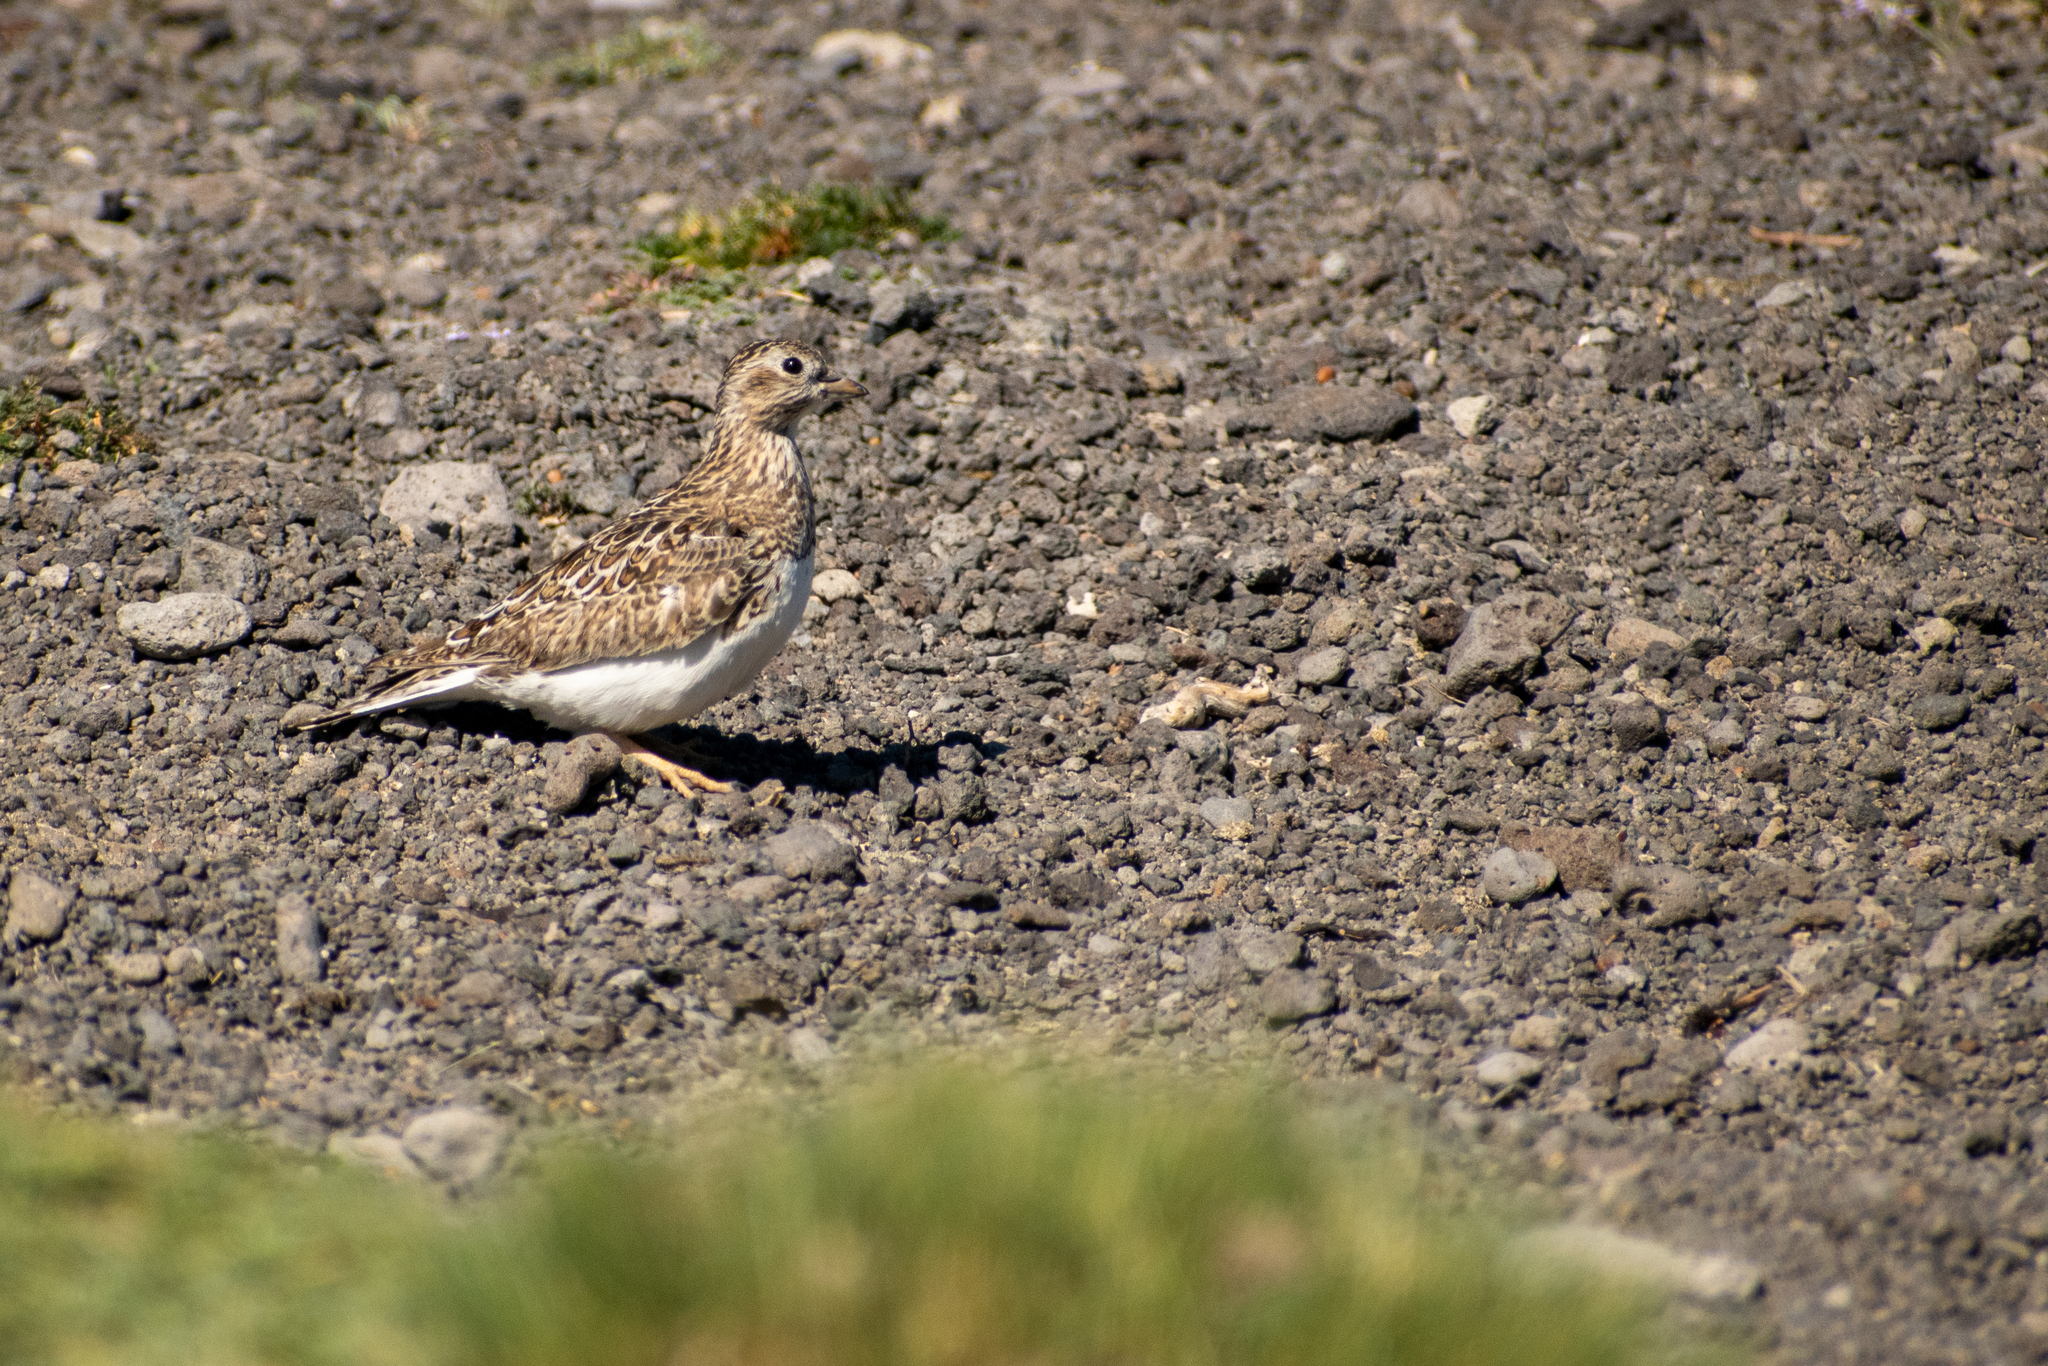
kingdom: Animalia
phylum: Chordata
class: Aves
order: Charadriiformes
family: Thinocoridae
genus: Thinocorus
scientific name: Thinocorus rumicivorus
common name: Least seedsnipe
